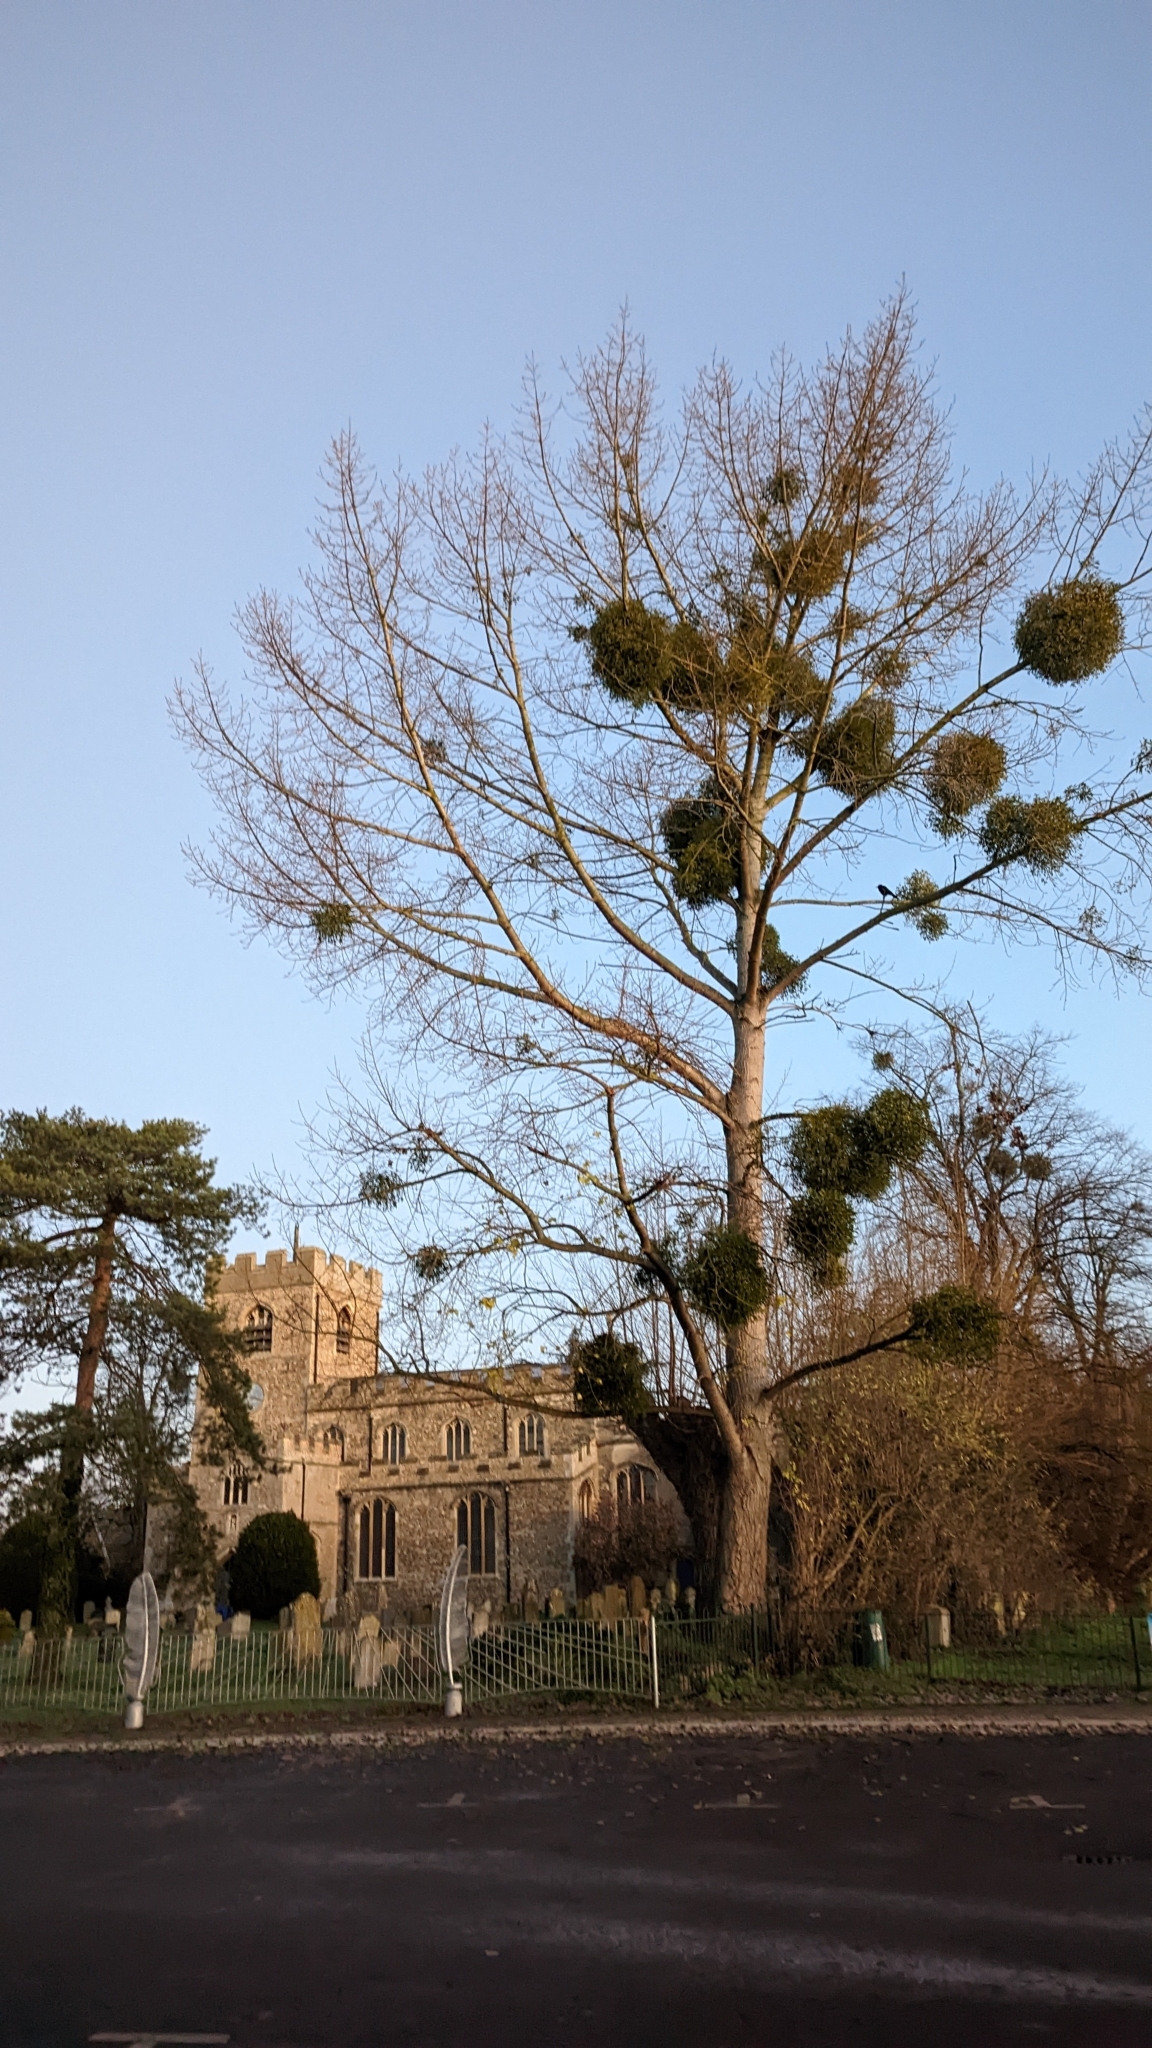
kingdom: Plantae
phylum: Tracheophyta
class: Magnoliopsida
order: Santalales
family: Viscaceae
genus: Viscum
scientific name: Viscum album
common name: Mistletoe
